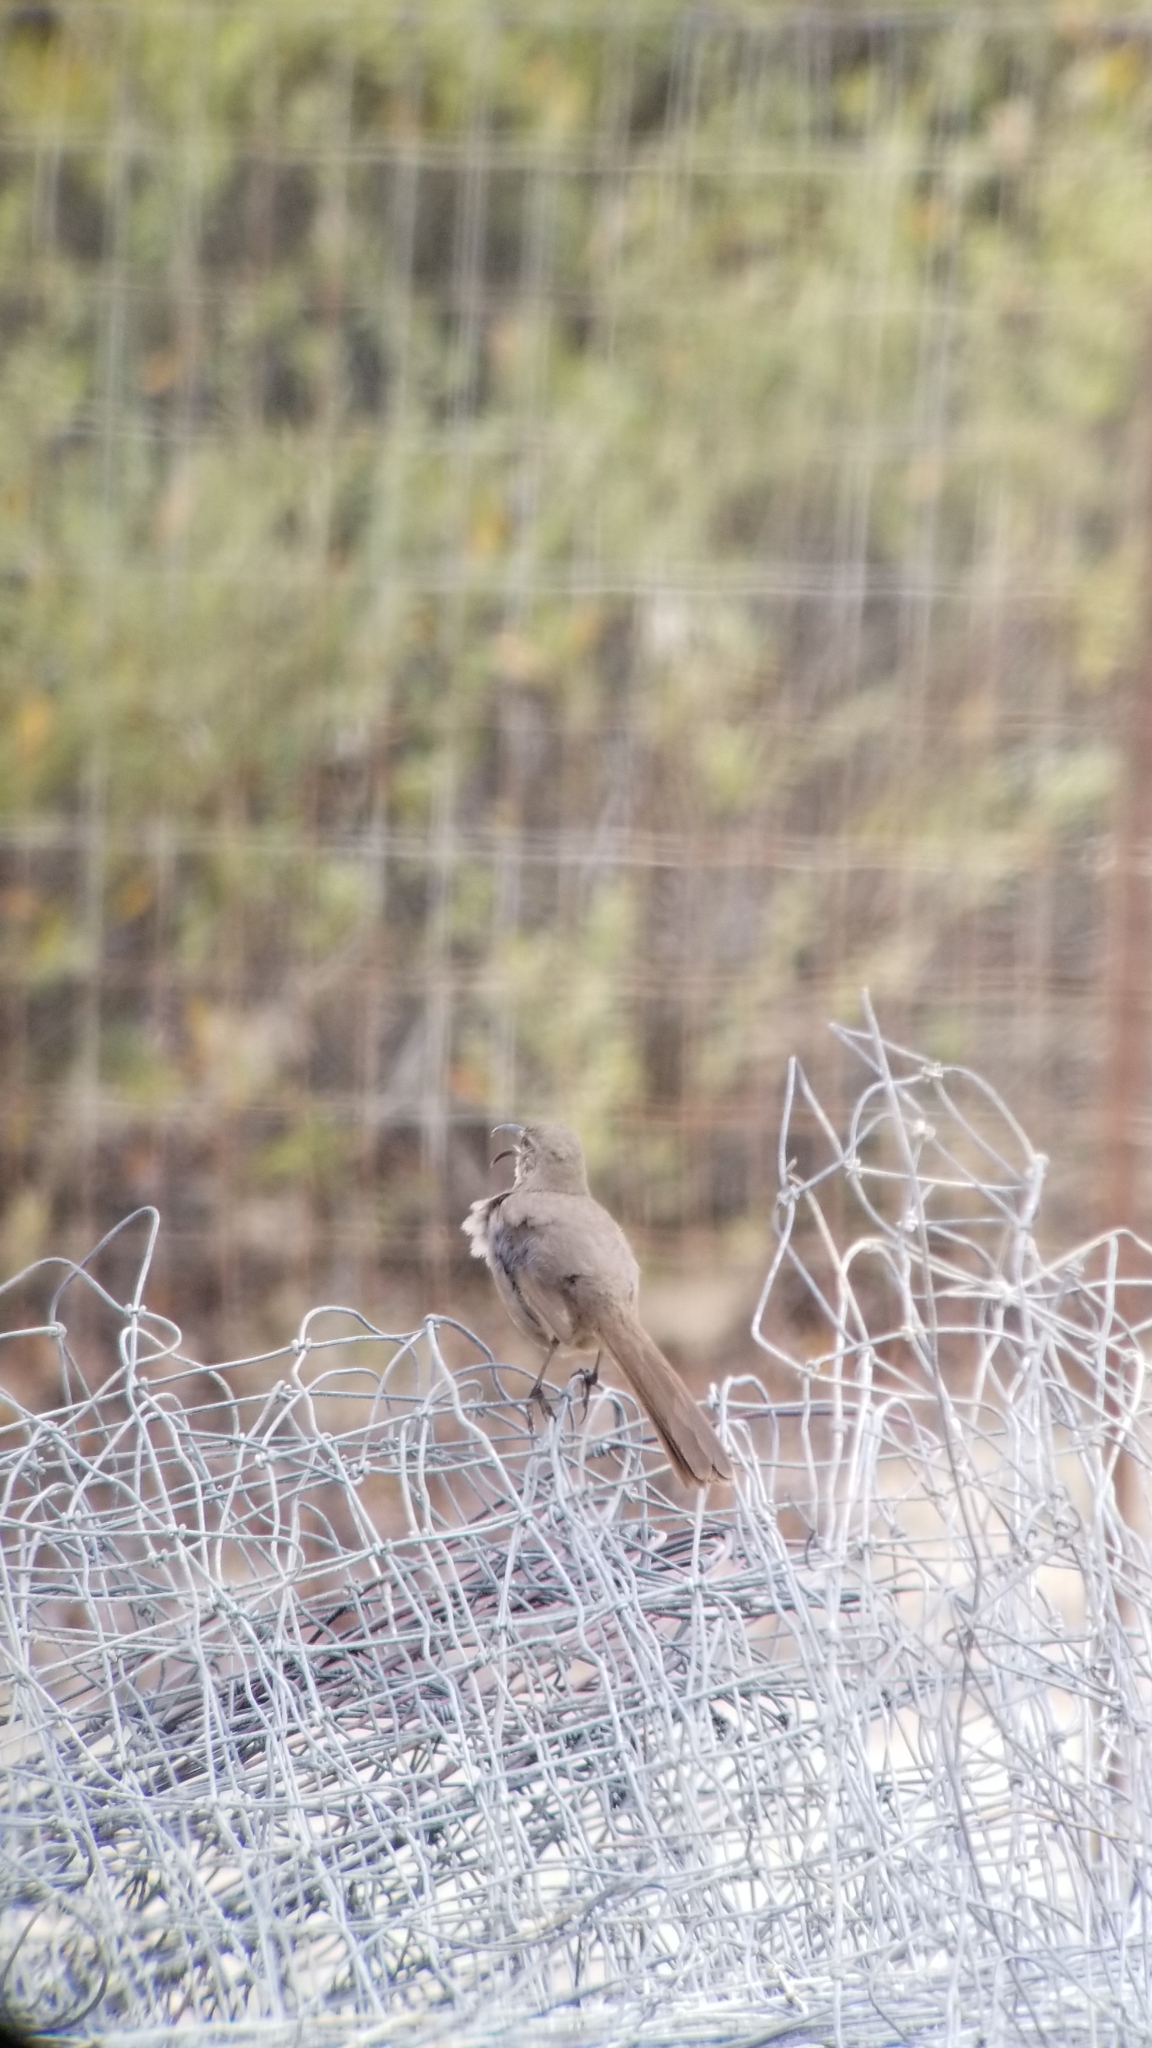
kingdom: Animalia
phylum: Chordata
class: Aves
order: Passeriformes
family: Mimidae
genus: Toxostoma
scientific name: Toxostoma redivivum
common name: California thrasher
